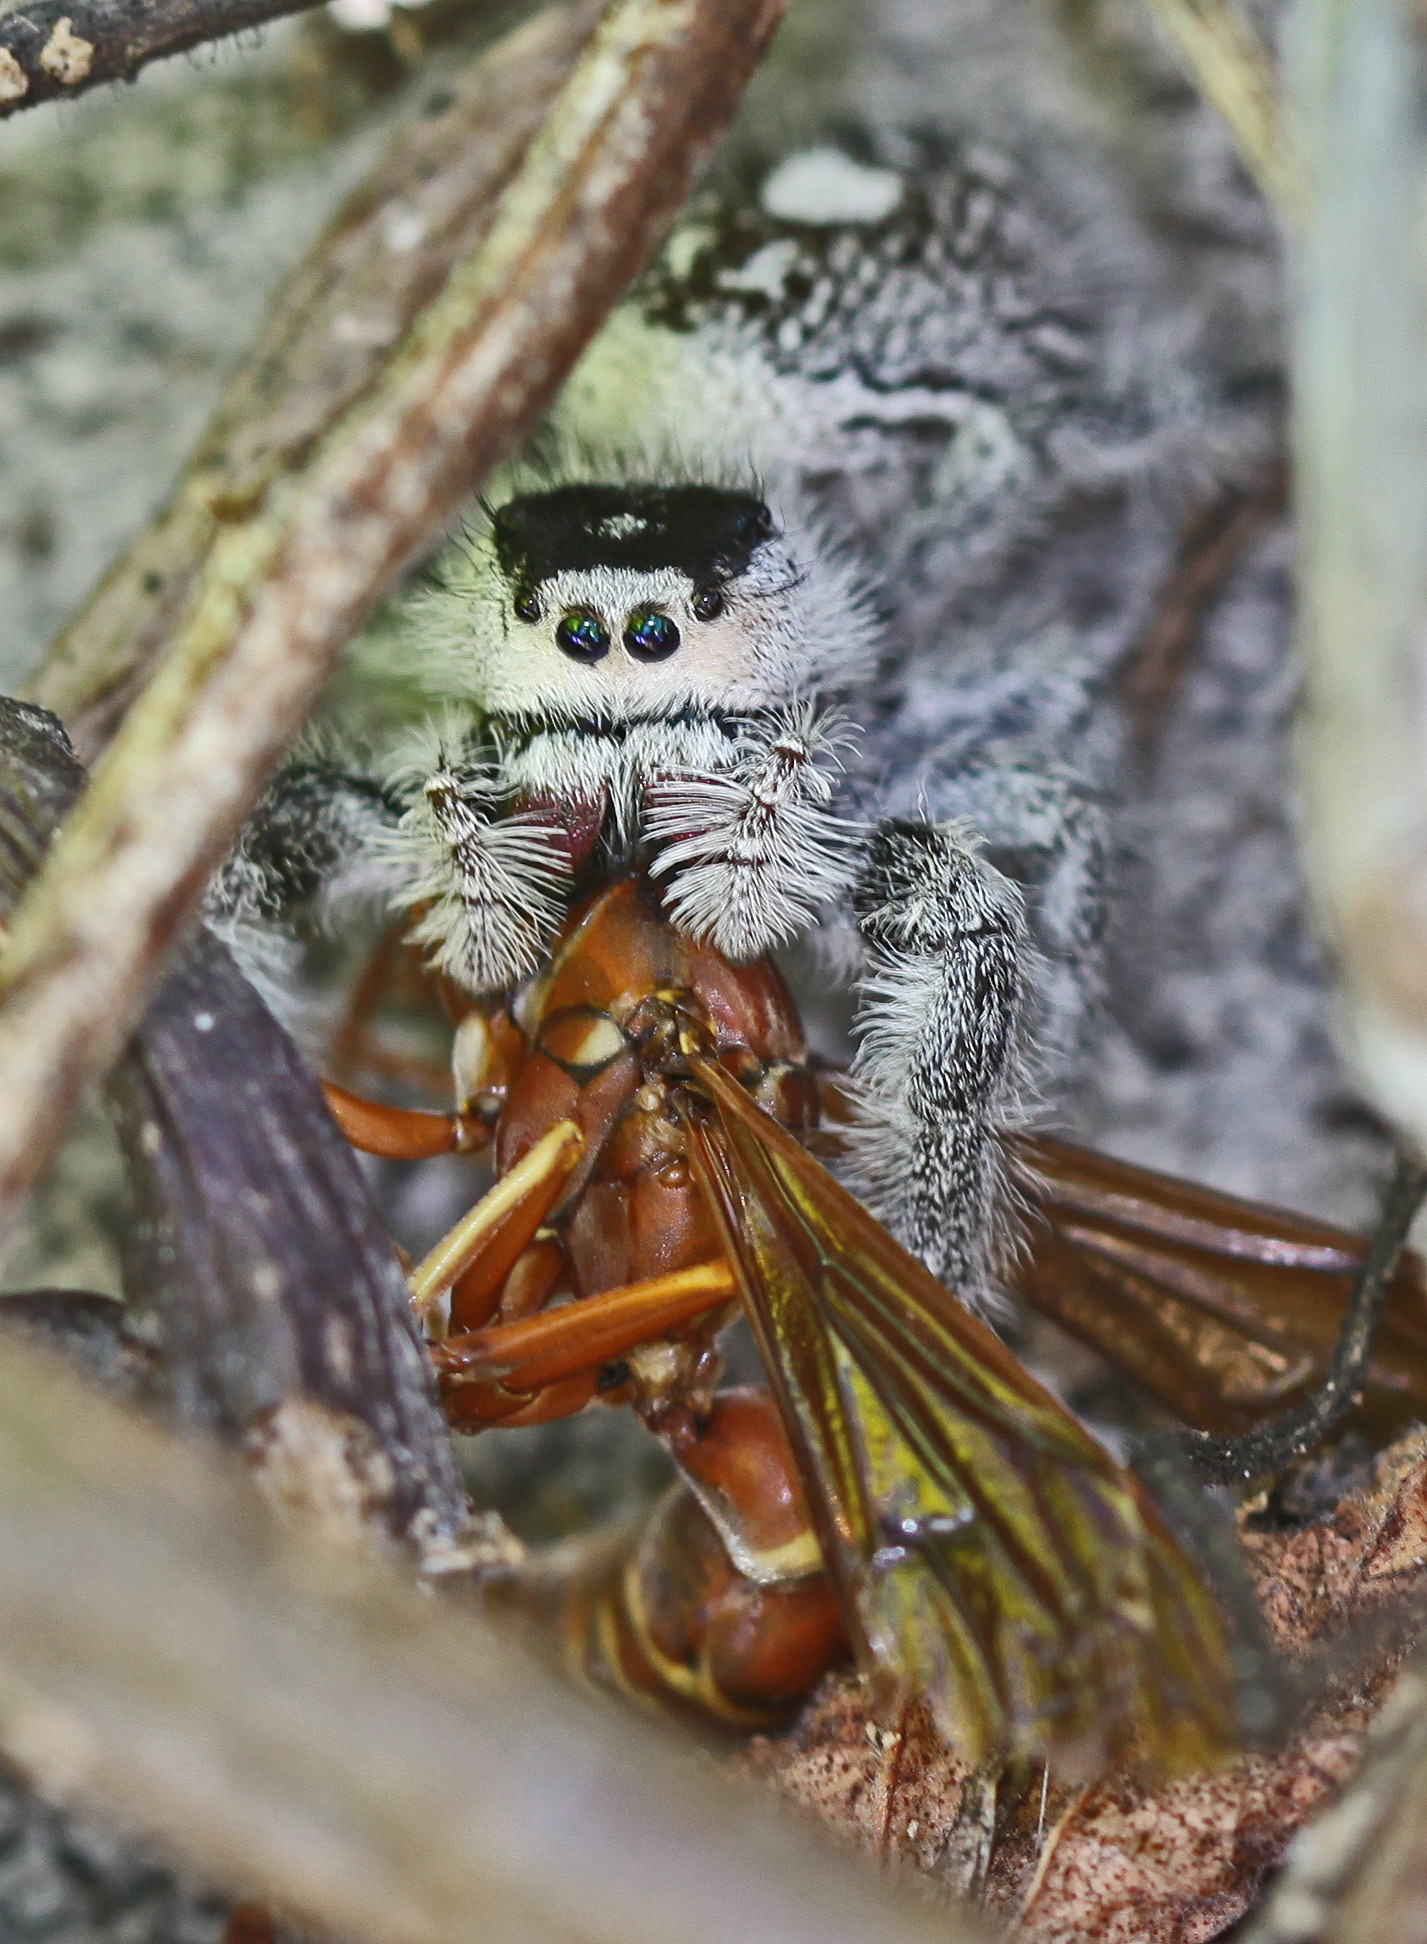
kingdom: Animalia
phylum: Arthropoda
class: Insecta
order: Hymenoptera
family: Eumenidae
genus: Polistes
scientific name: Polistes bellicosus
